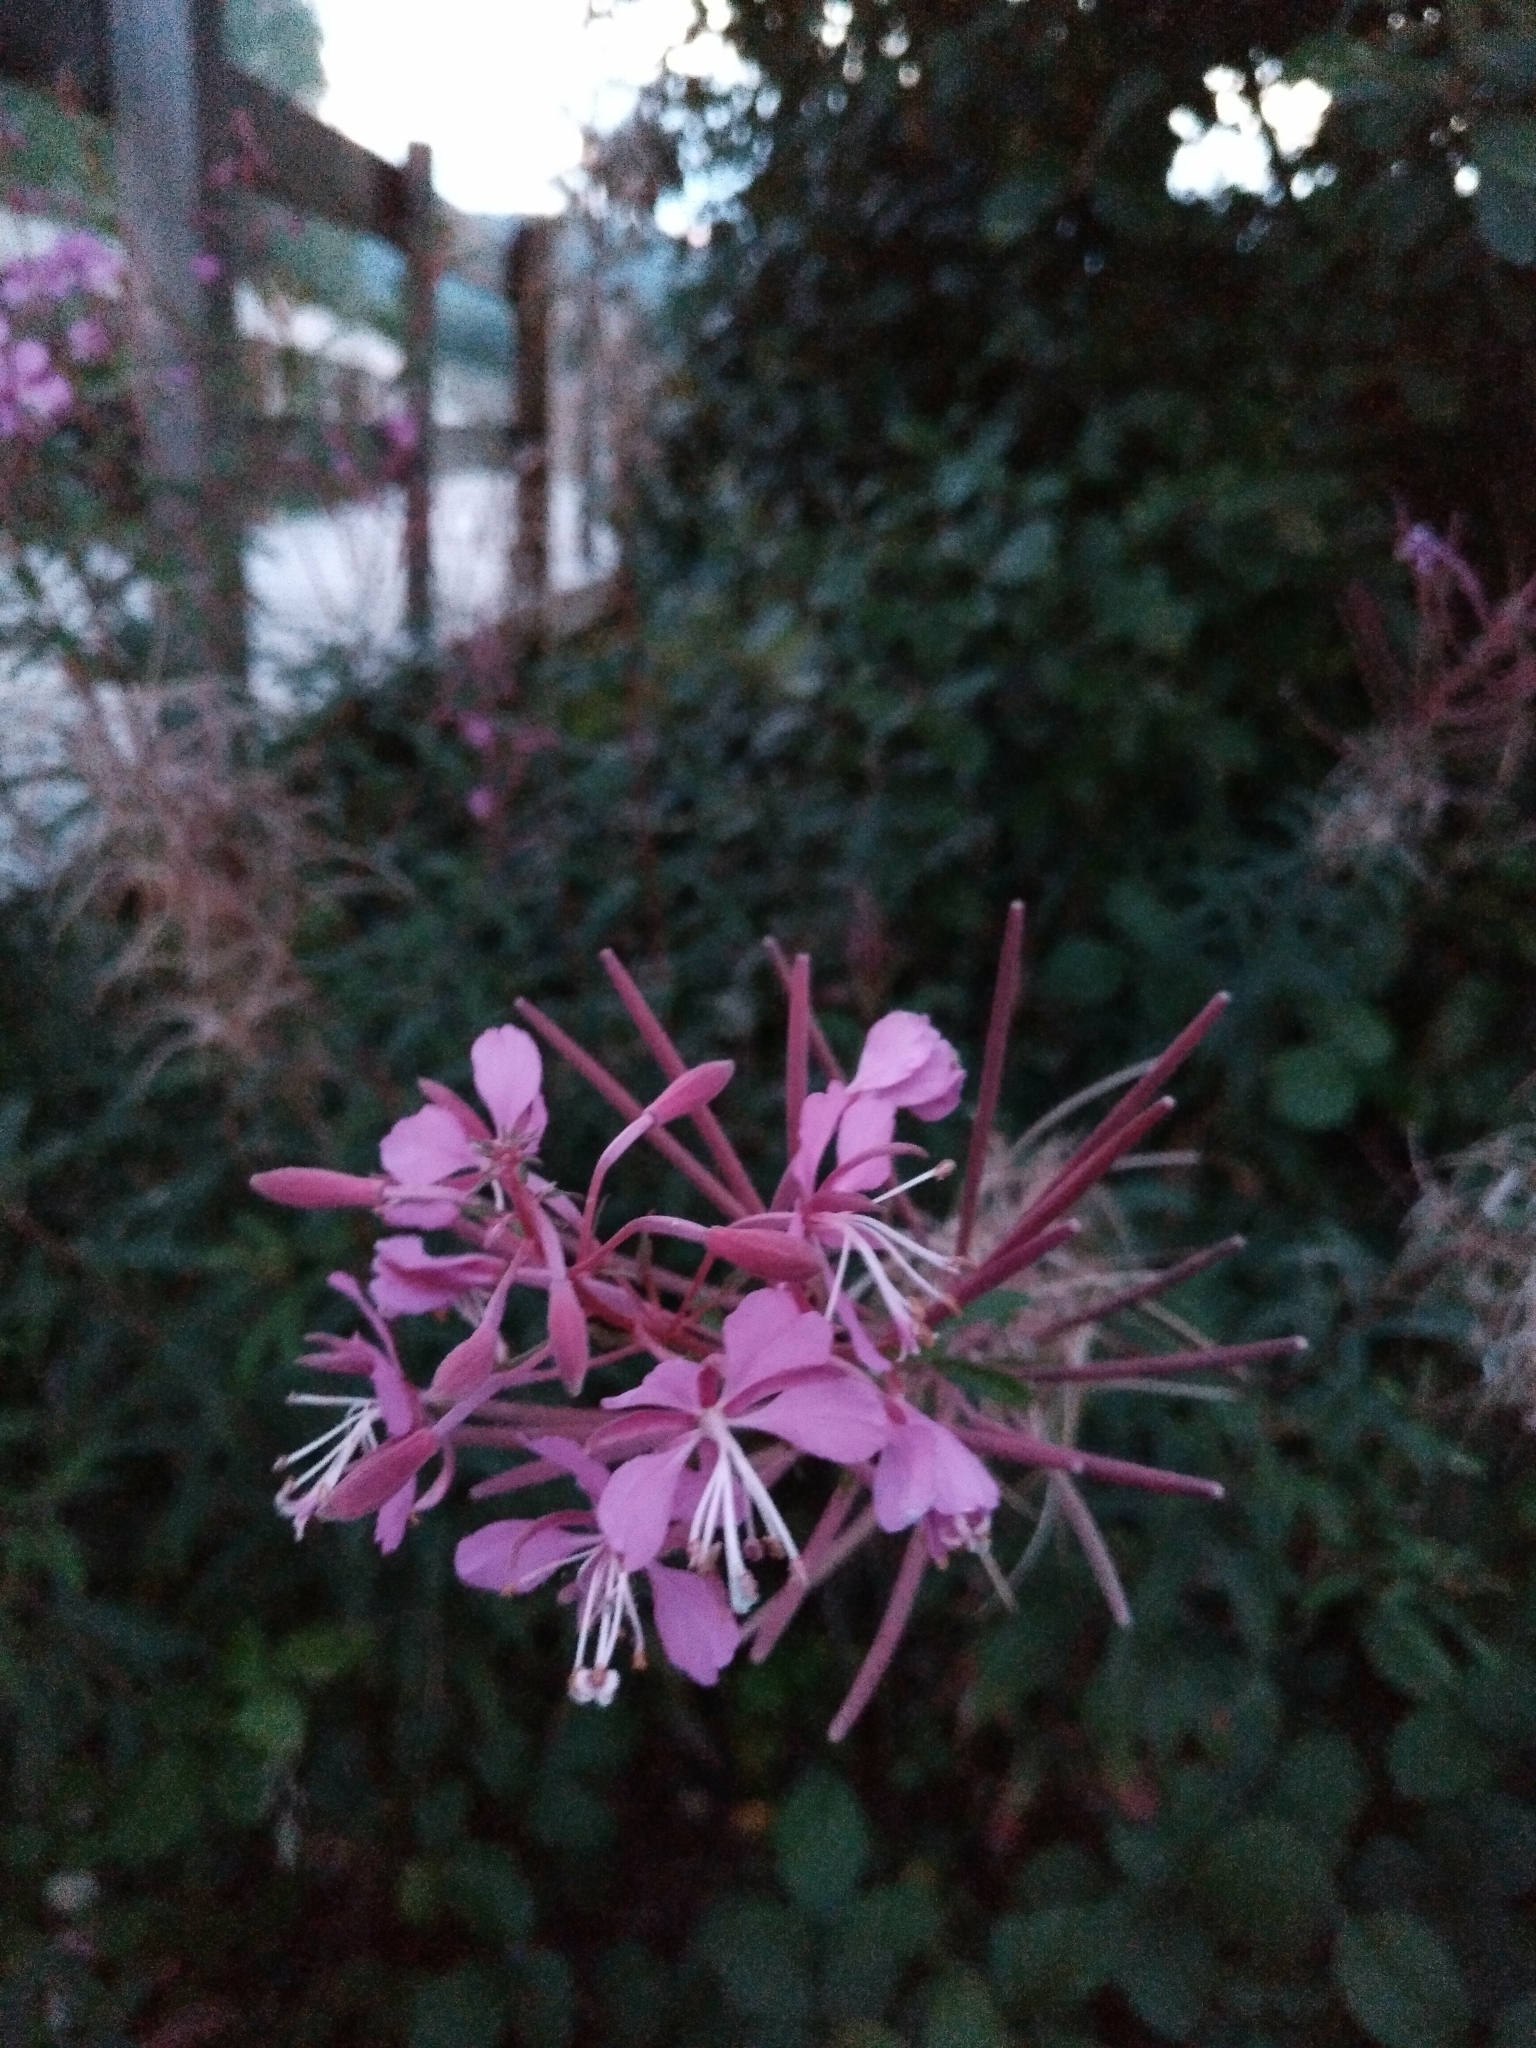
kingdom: Plantae
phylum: Tracheophyta
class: Magnoliopsida
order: Myrtales
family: Onagraceae
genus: Chamaenerion
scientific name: Chamaenerion angustifolium
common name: Fireweed
